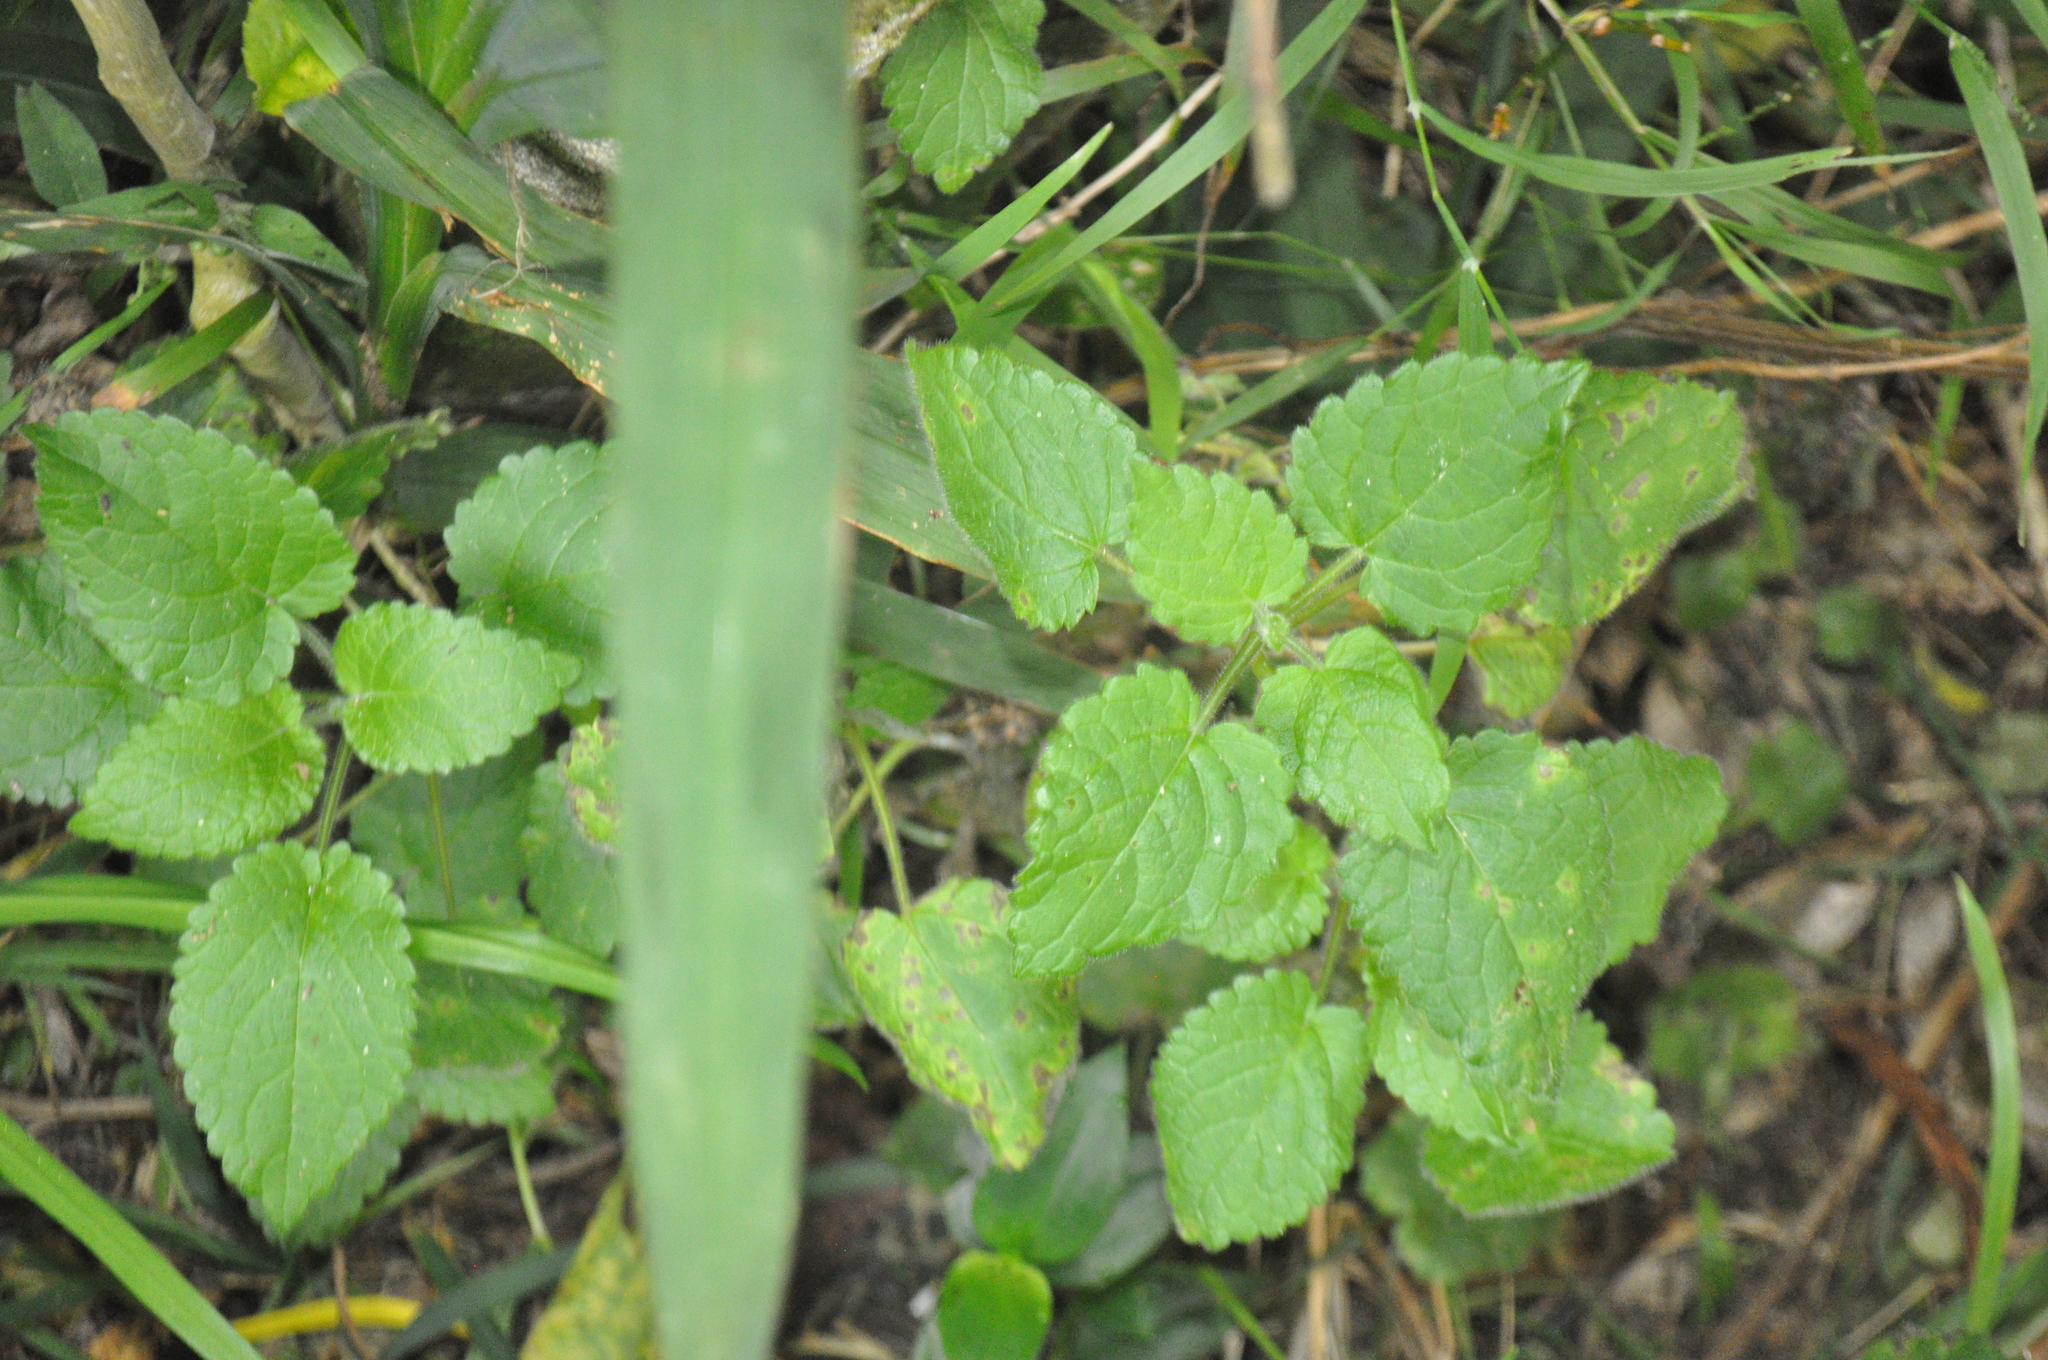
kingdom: Plantae
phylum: Tracheophyta
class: Magnoliopsida
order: Lamiales
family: Lamiaceae
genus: Stachys
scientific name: Stachys sylvatica
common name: Hedge woundwort
